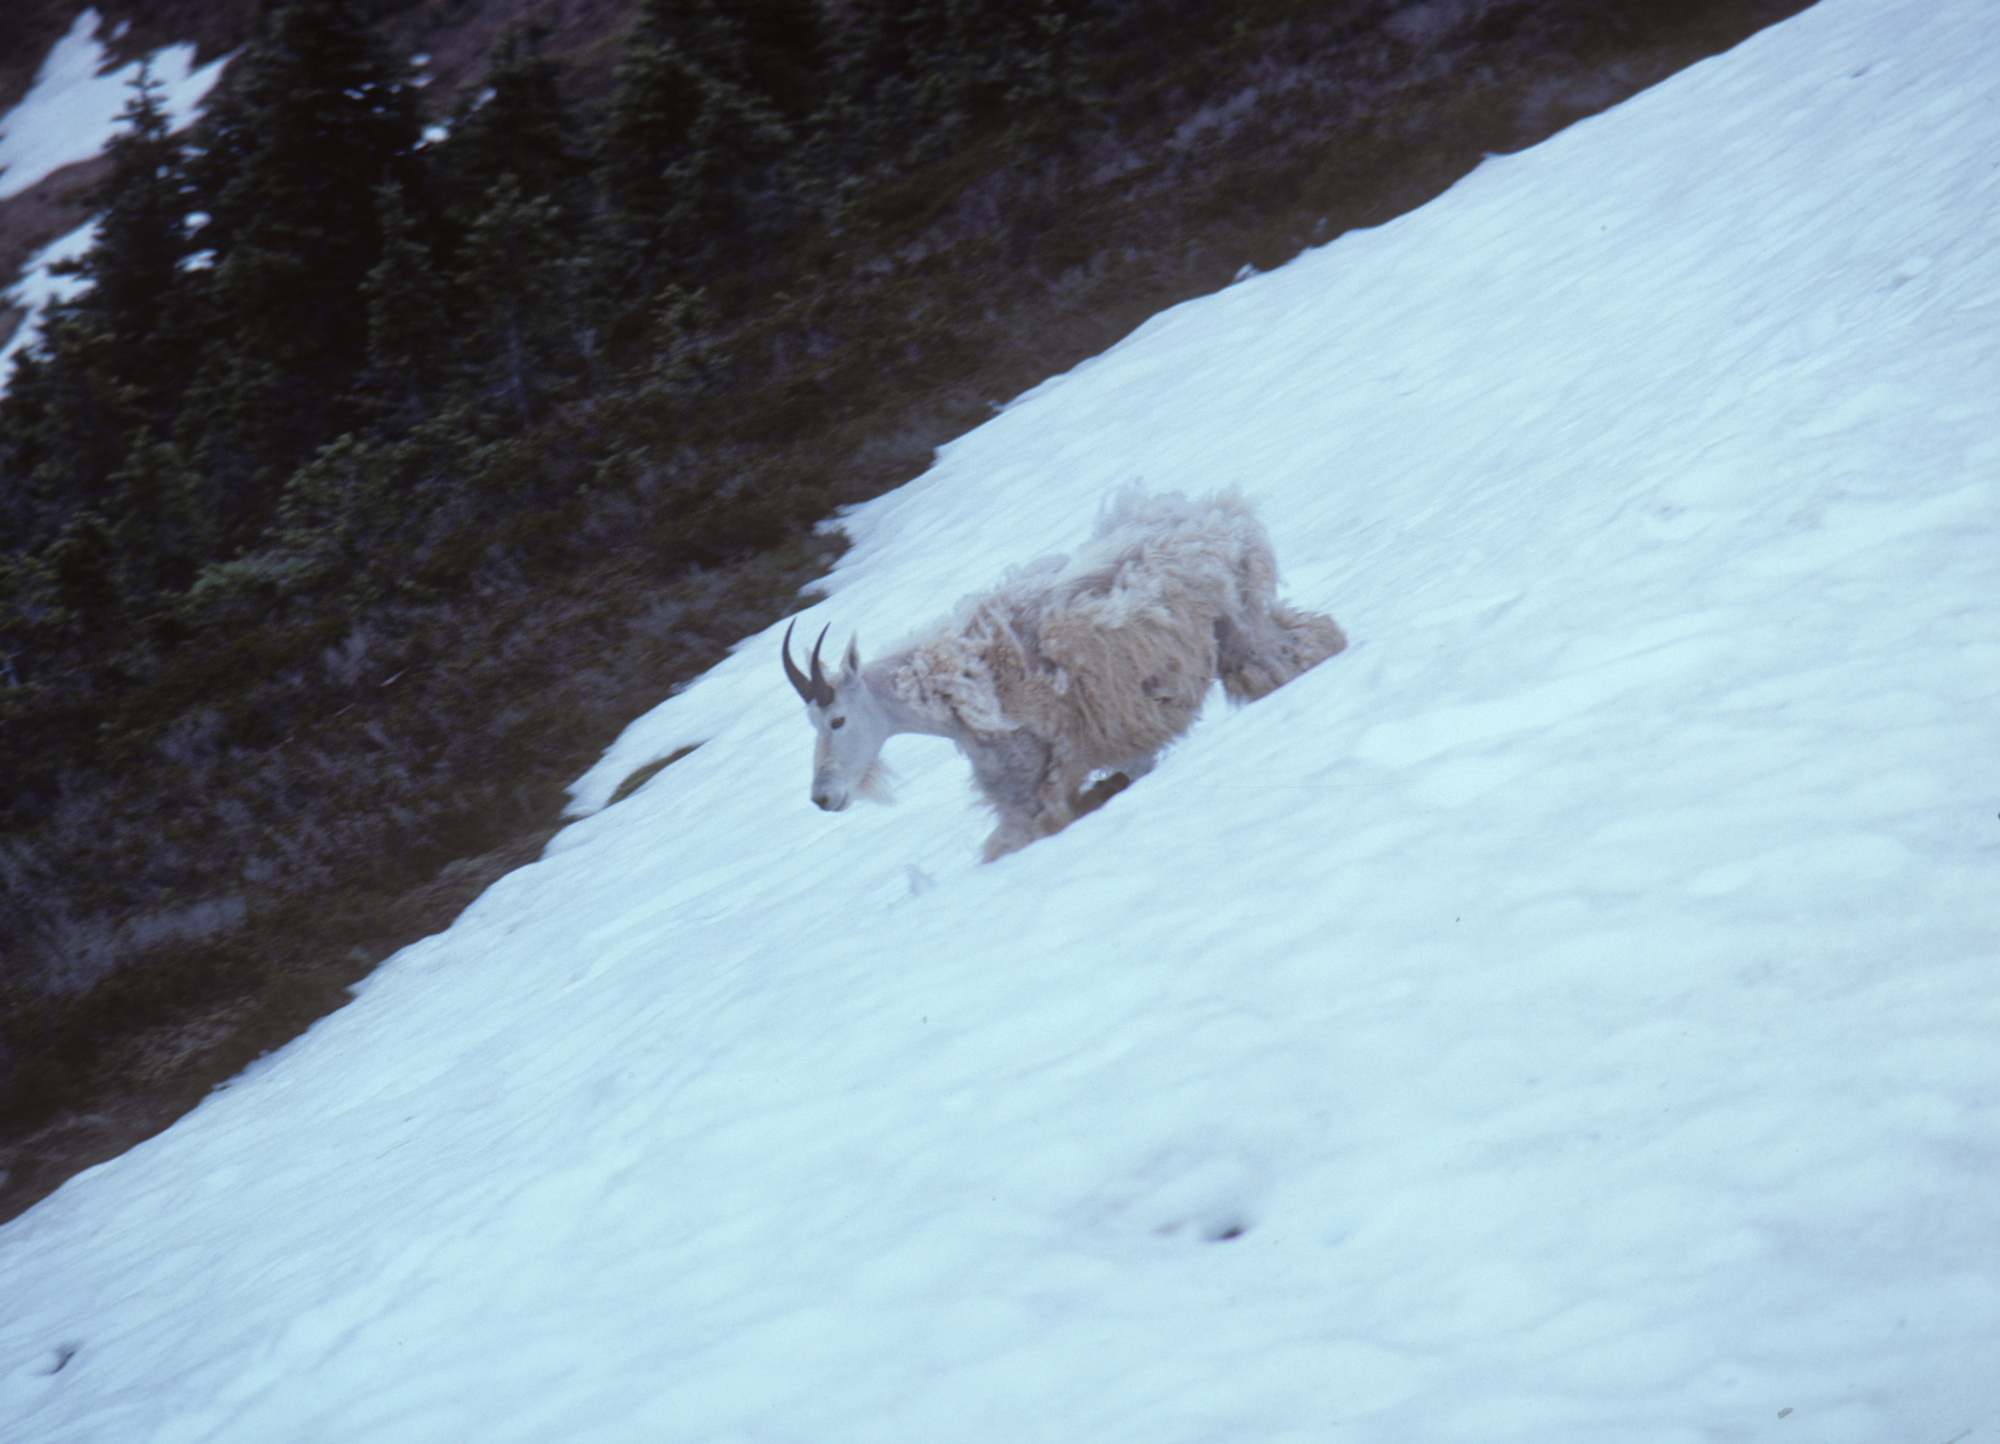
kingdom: Animalia
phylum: Chordata
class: Mammalia
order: Artiodactyla
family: Bovidae
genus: Oreamnos
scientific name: Oreamnos americanus
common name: Mountain goat
